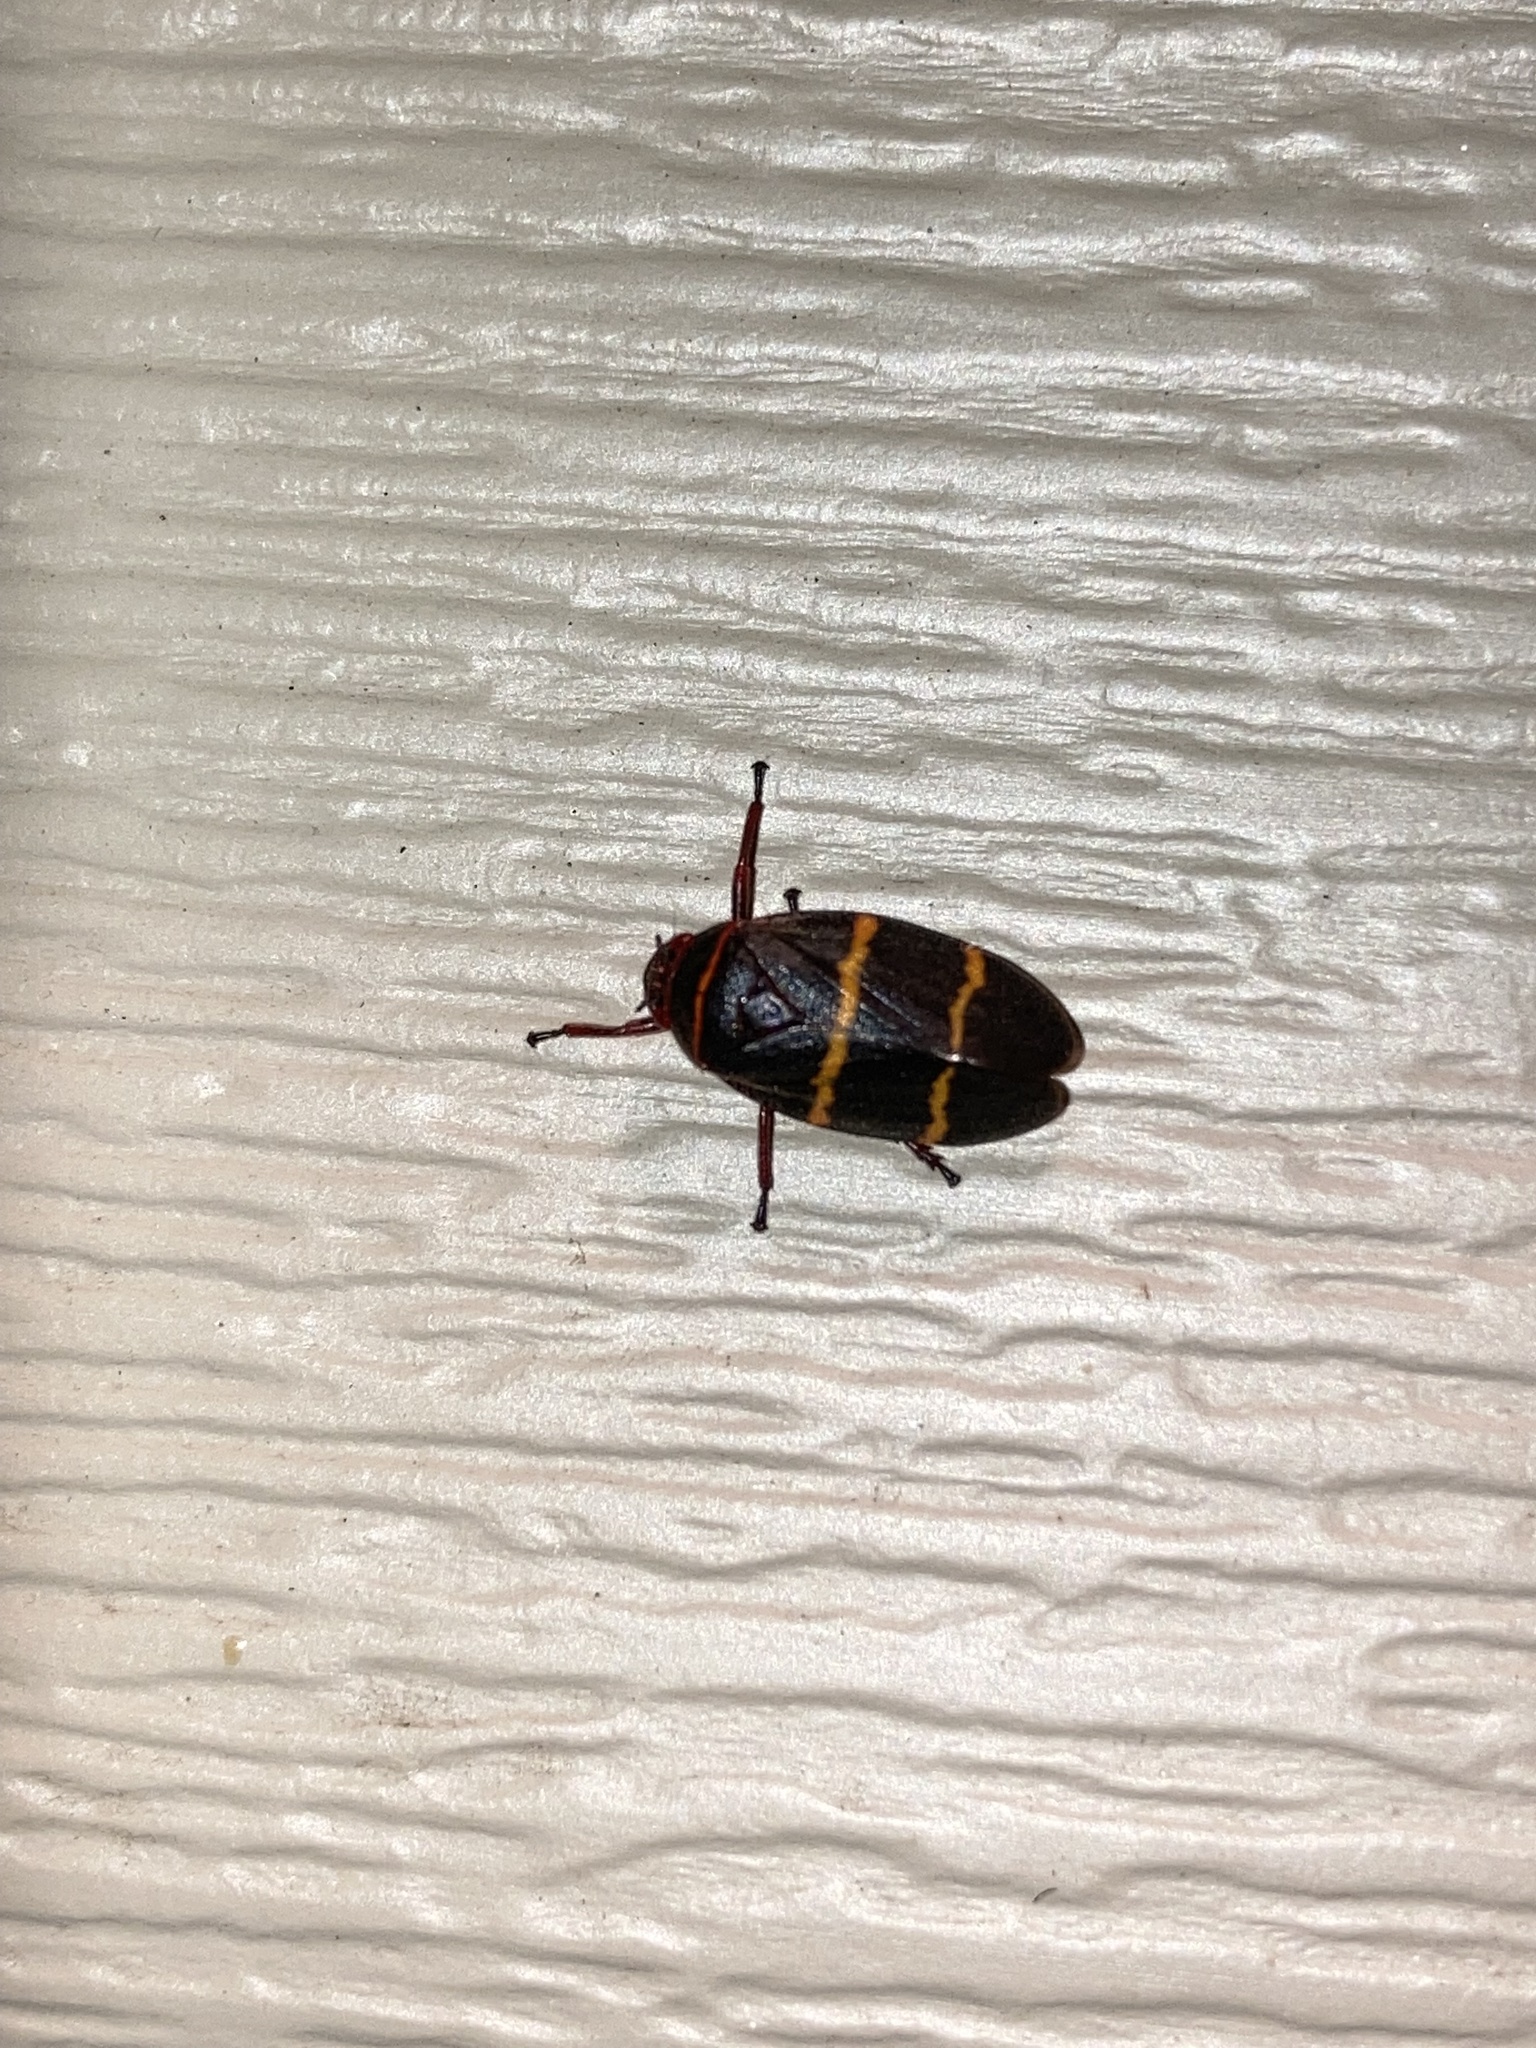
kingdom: Animalia
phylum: Arthropoda
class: Insecta
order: Hemiptera
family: Cercopidae
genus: Prosapia
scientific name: Prosapia bicincta
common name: Twolined spittlebug
